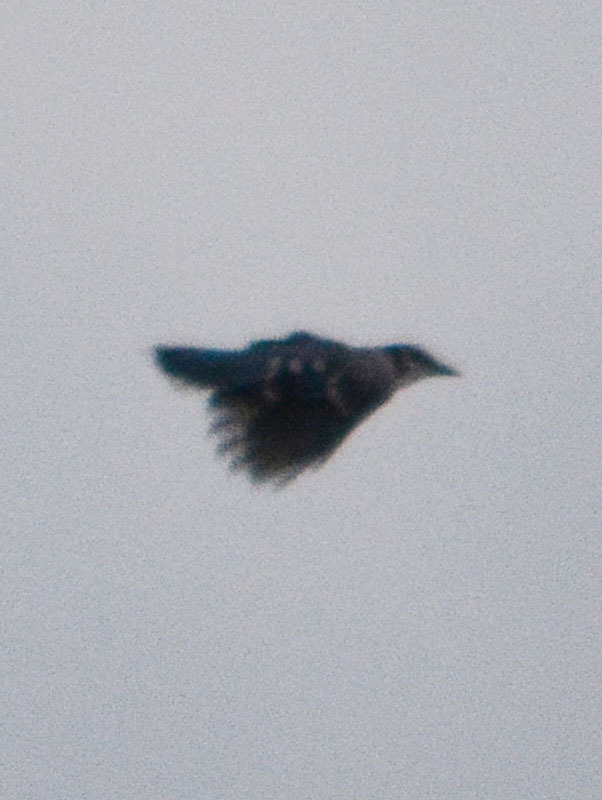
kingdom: Animalia
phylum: Chordata
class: Aves
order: Passeriformes
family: Corvidae
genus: Cyanocitta
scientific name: Cyanocitta cristata
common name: Blue jay
